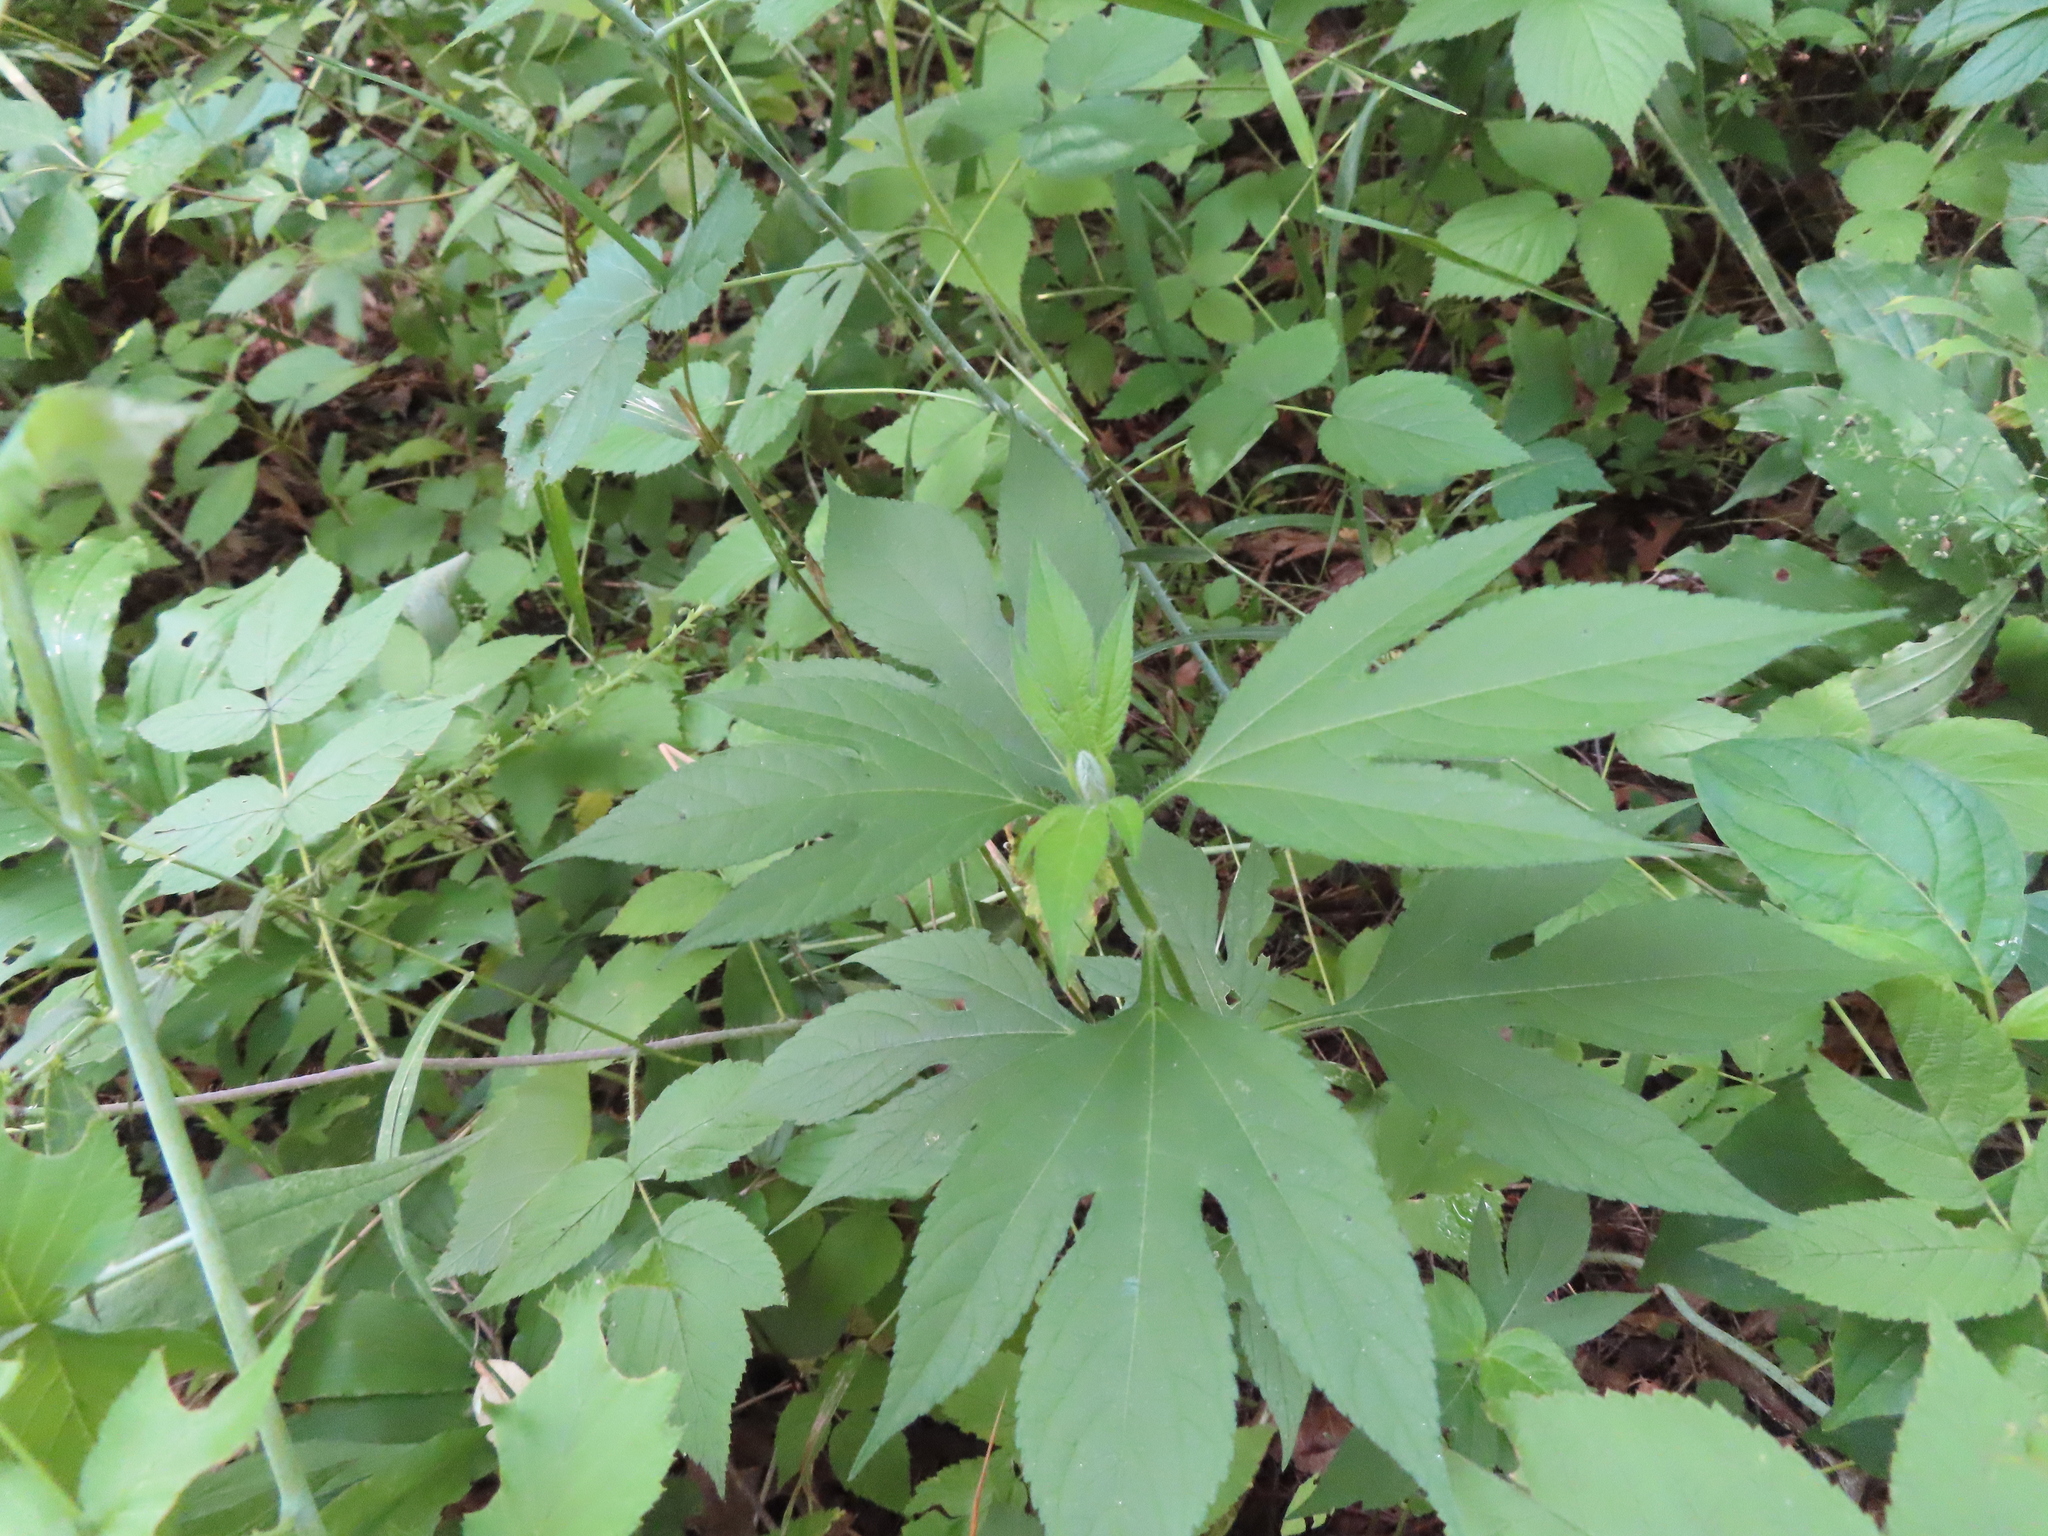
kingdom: Plantae
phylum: Tracheophyta
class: Magnoliopsida
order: Asterales
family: Asteraceae
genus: Ambrosia
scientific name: Ambrosia trifida
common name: Giant ragweed
